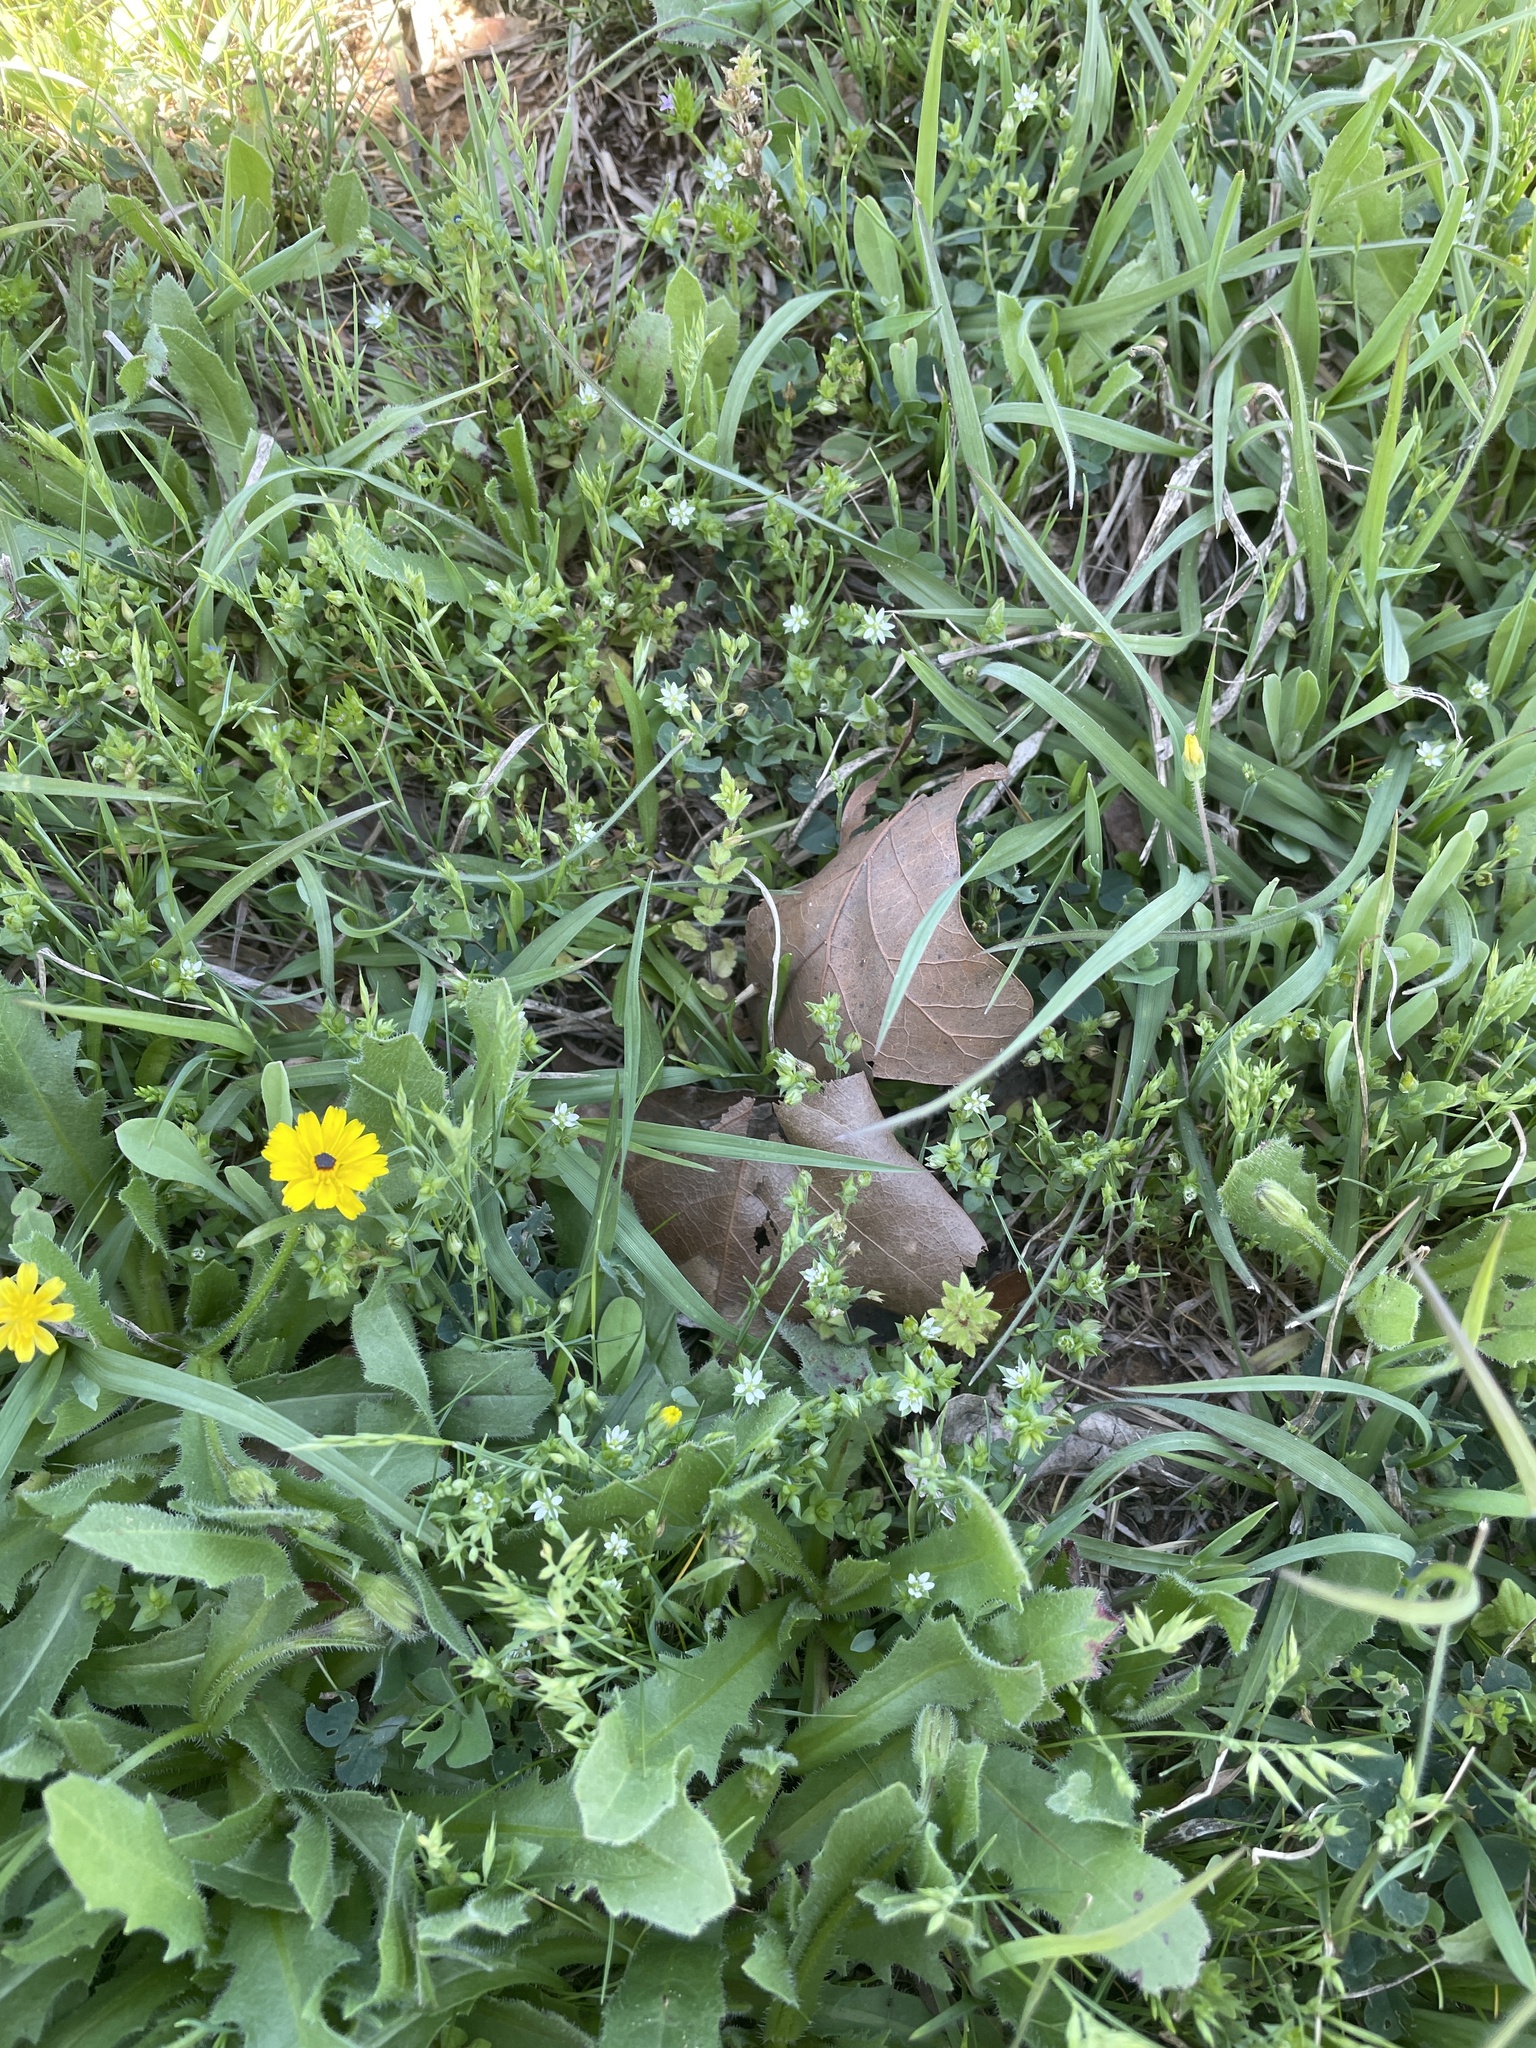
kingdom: Plantae
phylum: Tracheophyta
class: Magnoliopsida
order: Caryophyllales
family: Caryophyllaceae
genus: Arenaria
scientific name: Arenaria serpyllifolia
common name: Thyme-leaved sandwort
